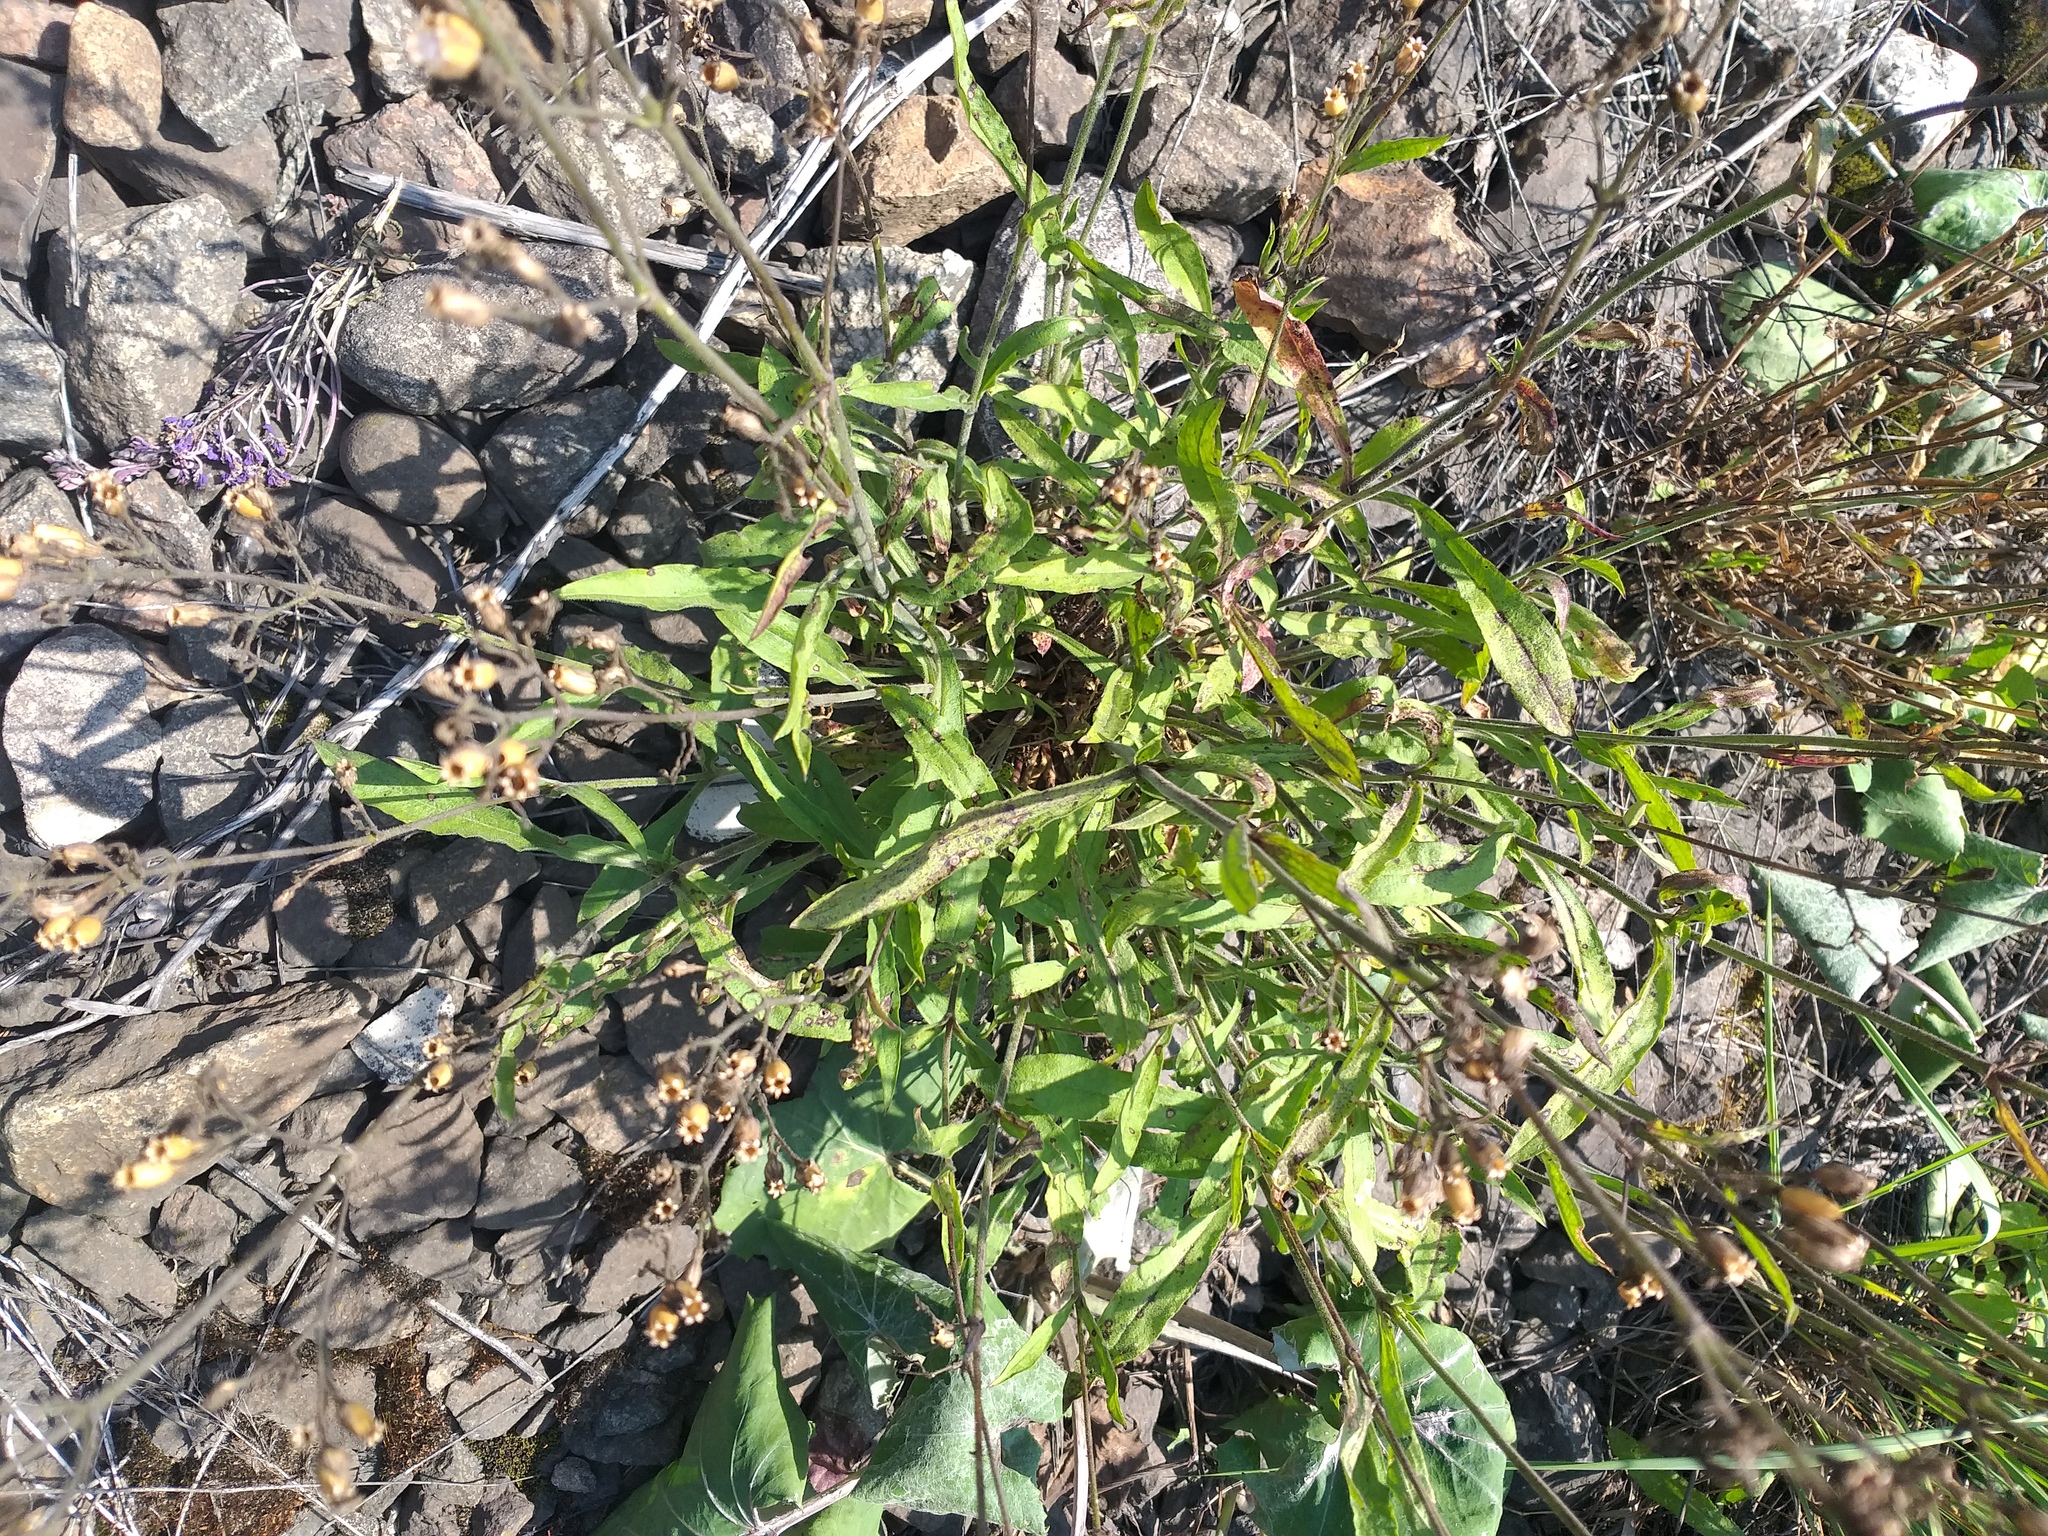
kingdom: Plantae
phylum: Tracheophyta
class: Magnoliopsida
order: Caryophyllales
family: Caryophyllaceae
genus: Silene
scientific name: Silene nutans
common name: Nottingham catchfly
